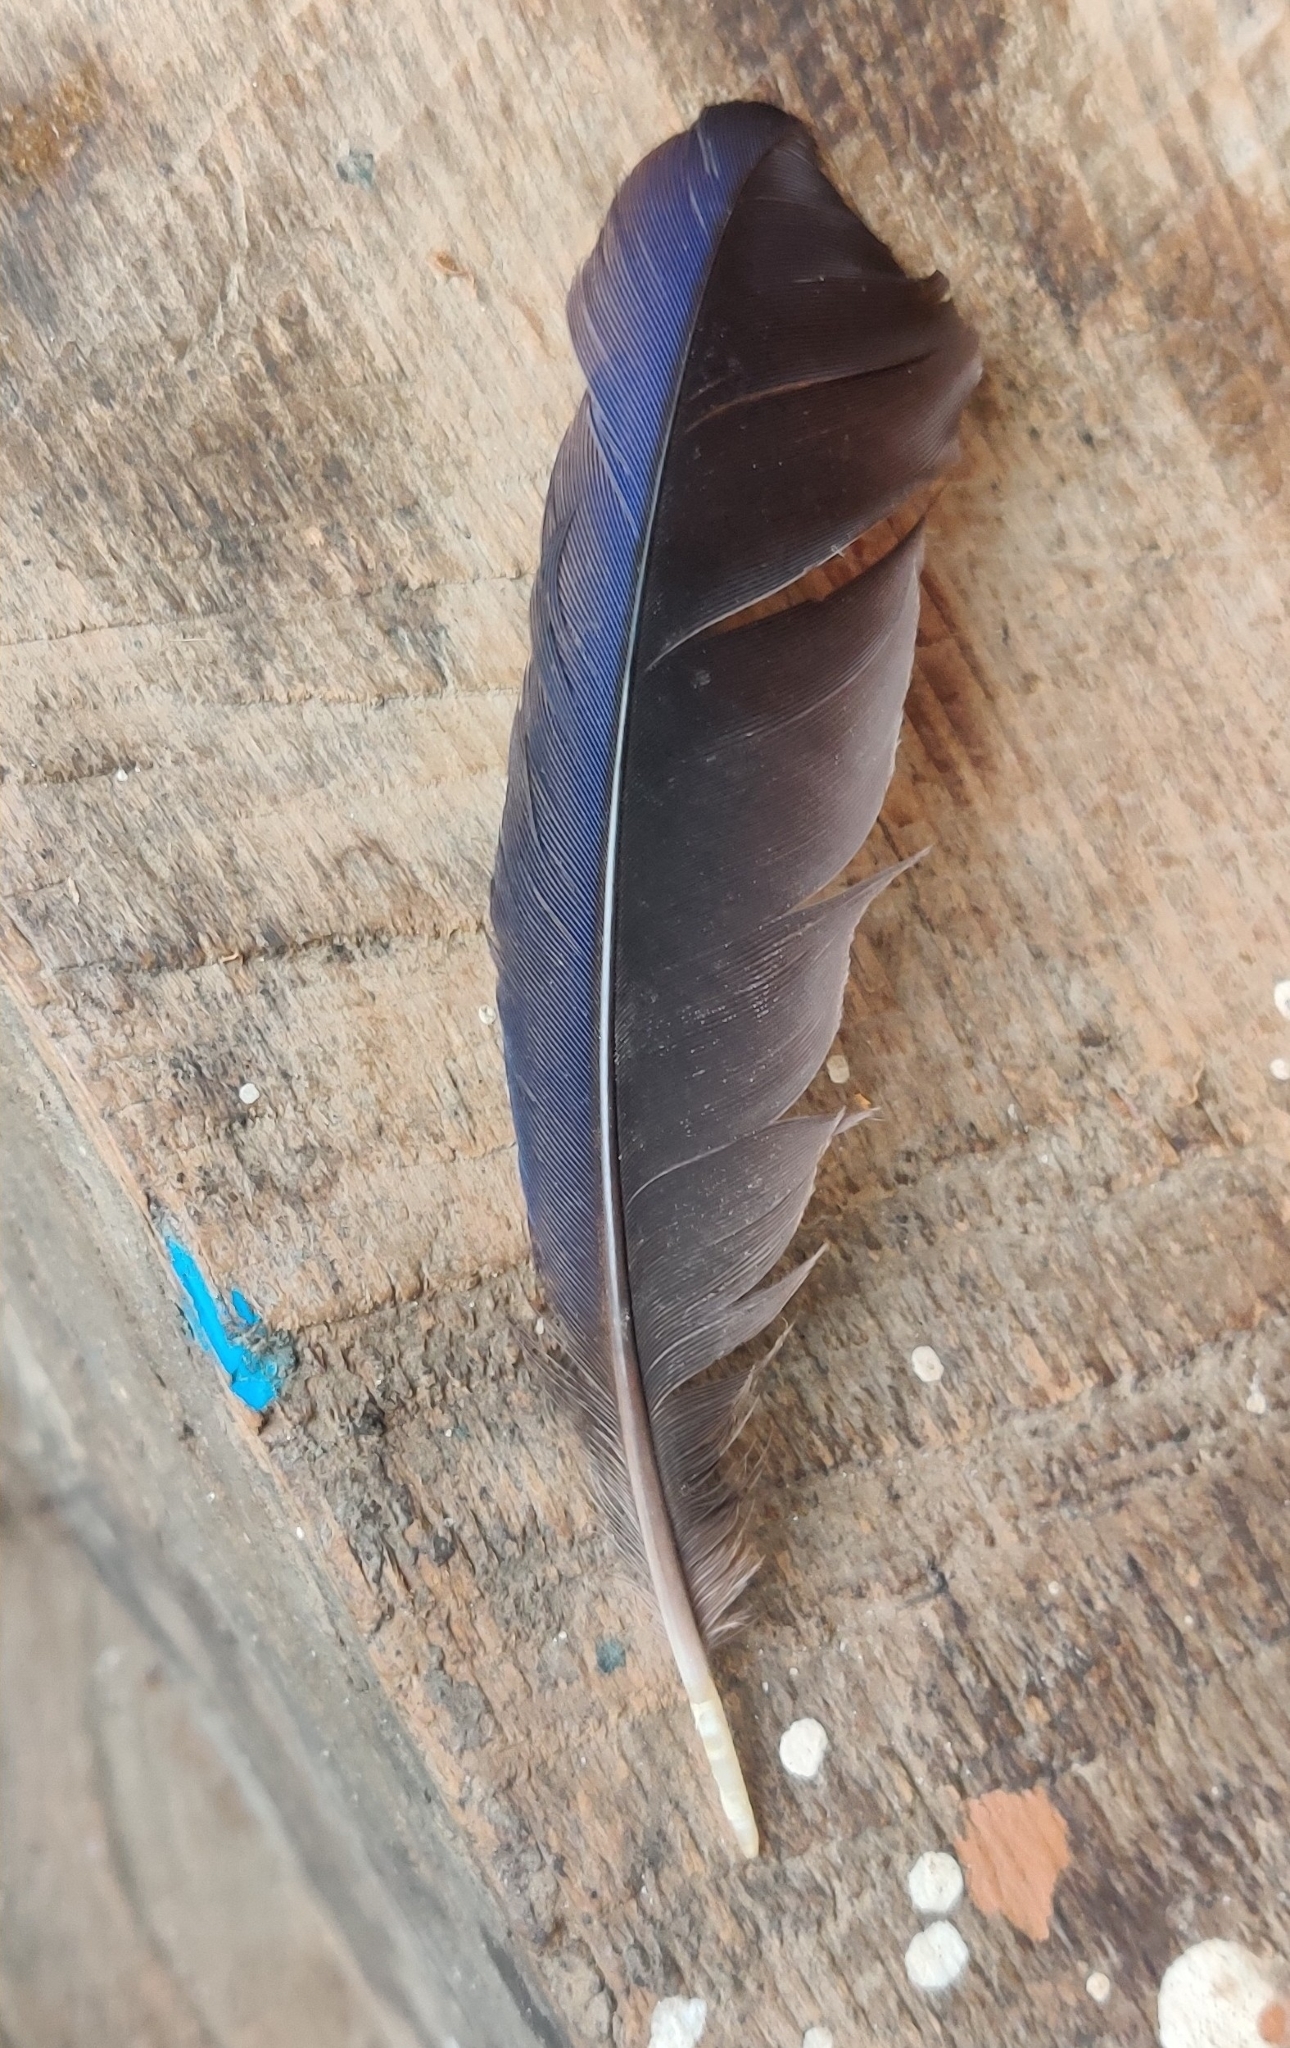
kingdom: Animalia
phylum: Chordata
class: Aves
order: Passeriformes
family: Muscicapidae
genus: Myophonus
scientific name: Myophonus caeruleus
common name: Blue whistling-thrush
